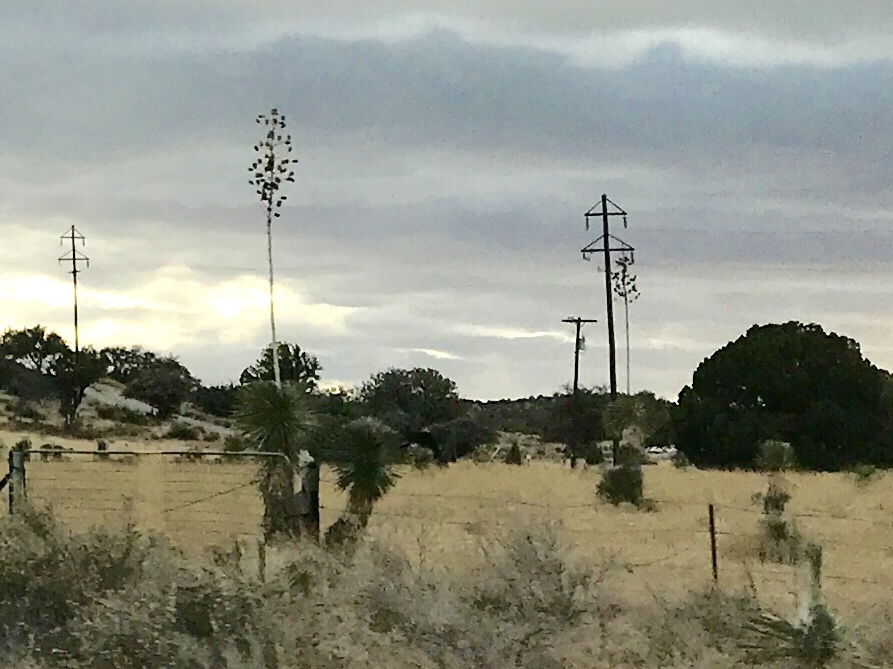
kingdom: Plantae
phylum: Tracheophyta
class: Liliopsida
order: Asparagales
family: Asparagaceae
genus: Yucca
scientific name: Yucca elata
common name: Palmella
